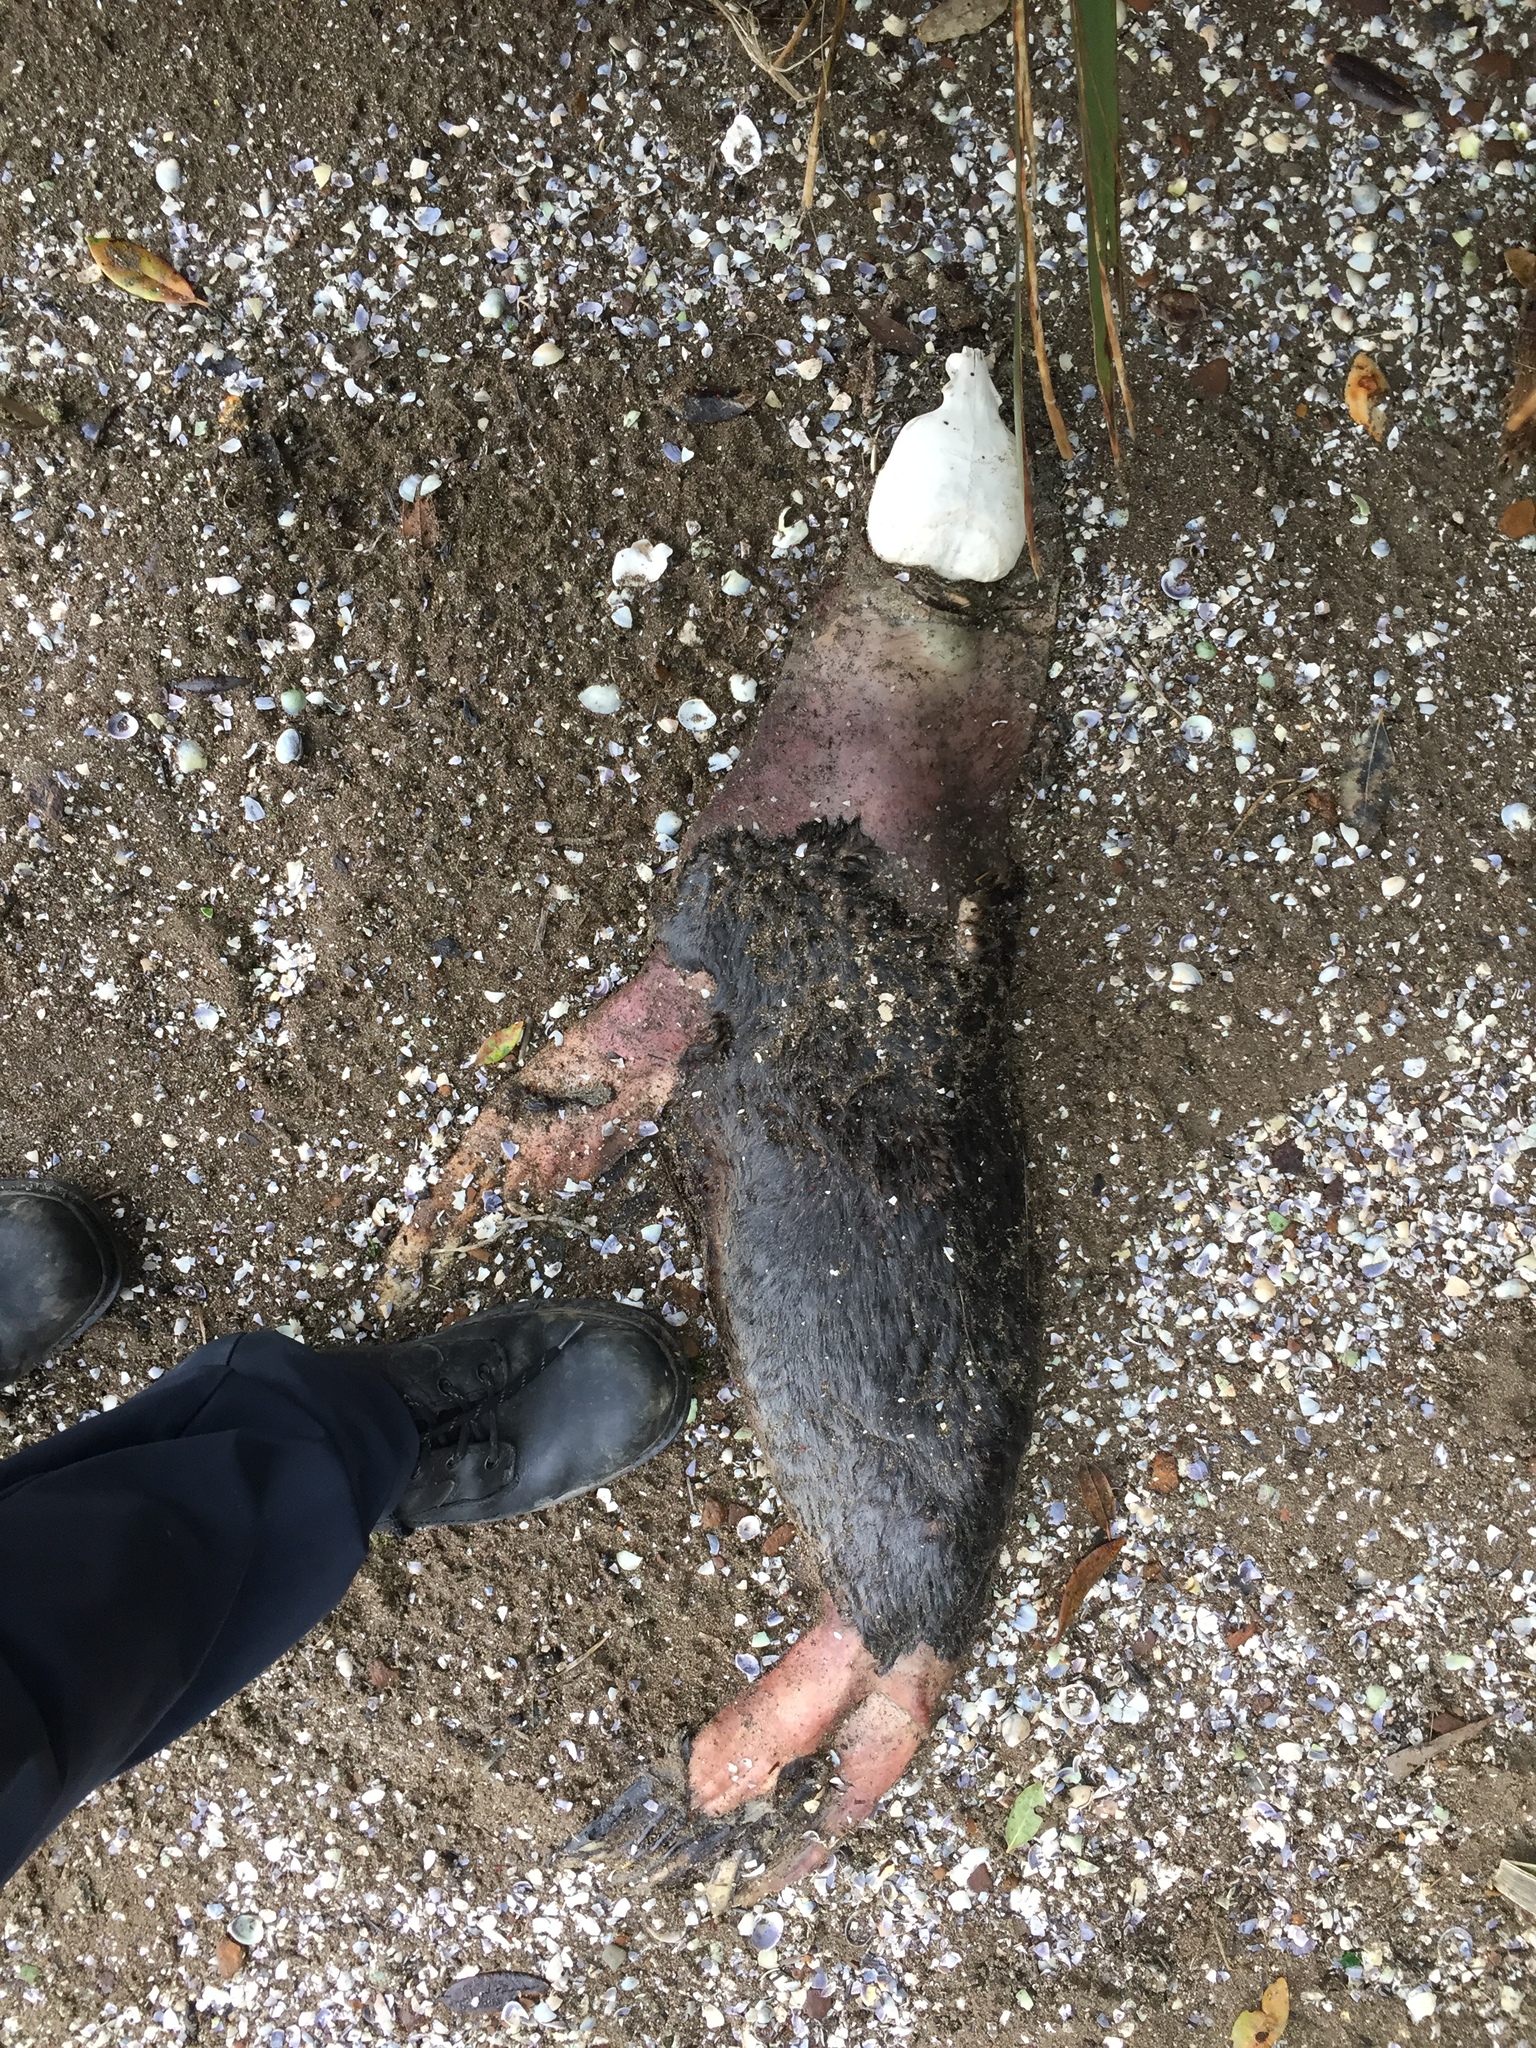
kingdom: Animalia
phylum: Chordata
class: Mammalia
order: Carnivora
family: Otariidae
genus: Arctocephalus
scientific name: Arctocephalus forsteri
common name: New zealand fur seal
